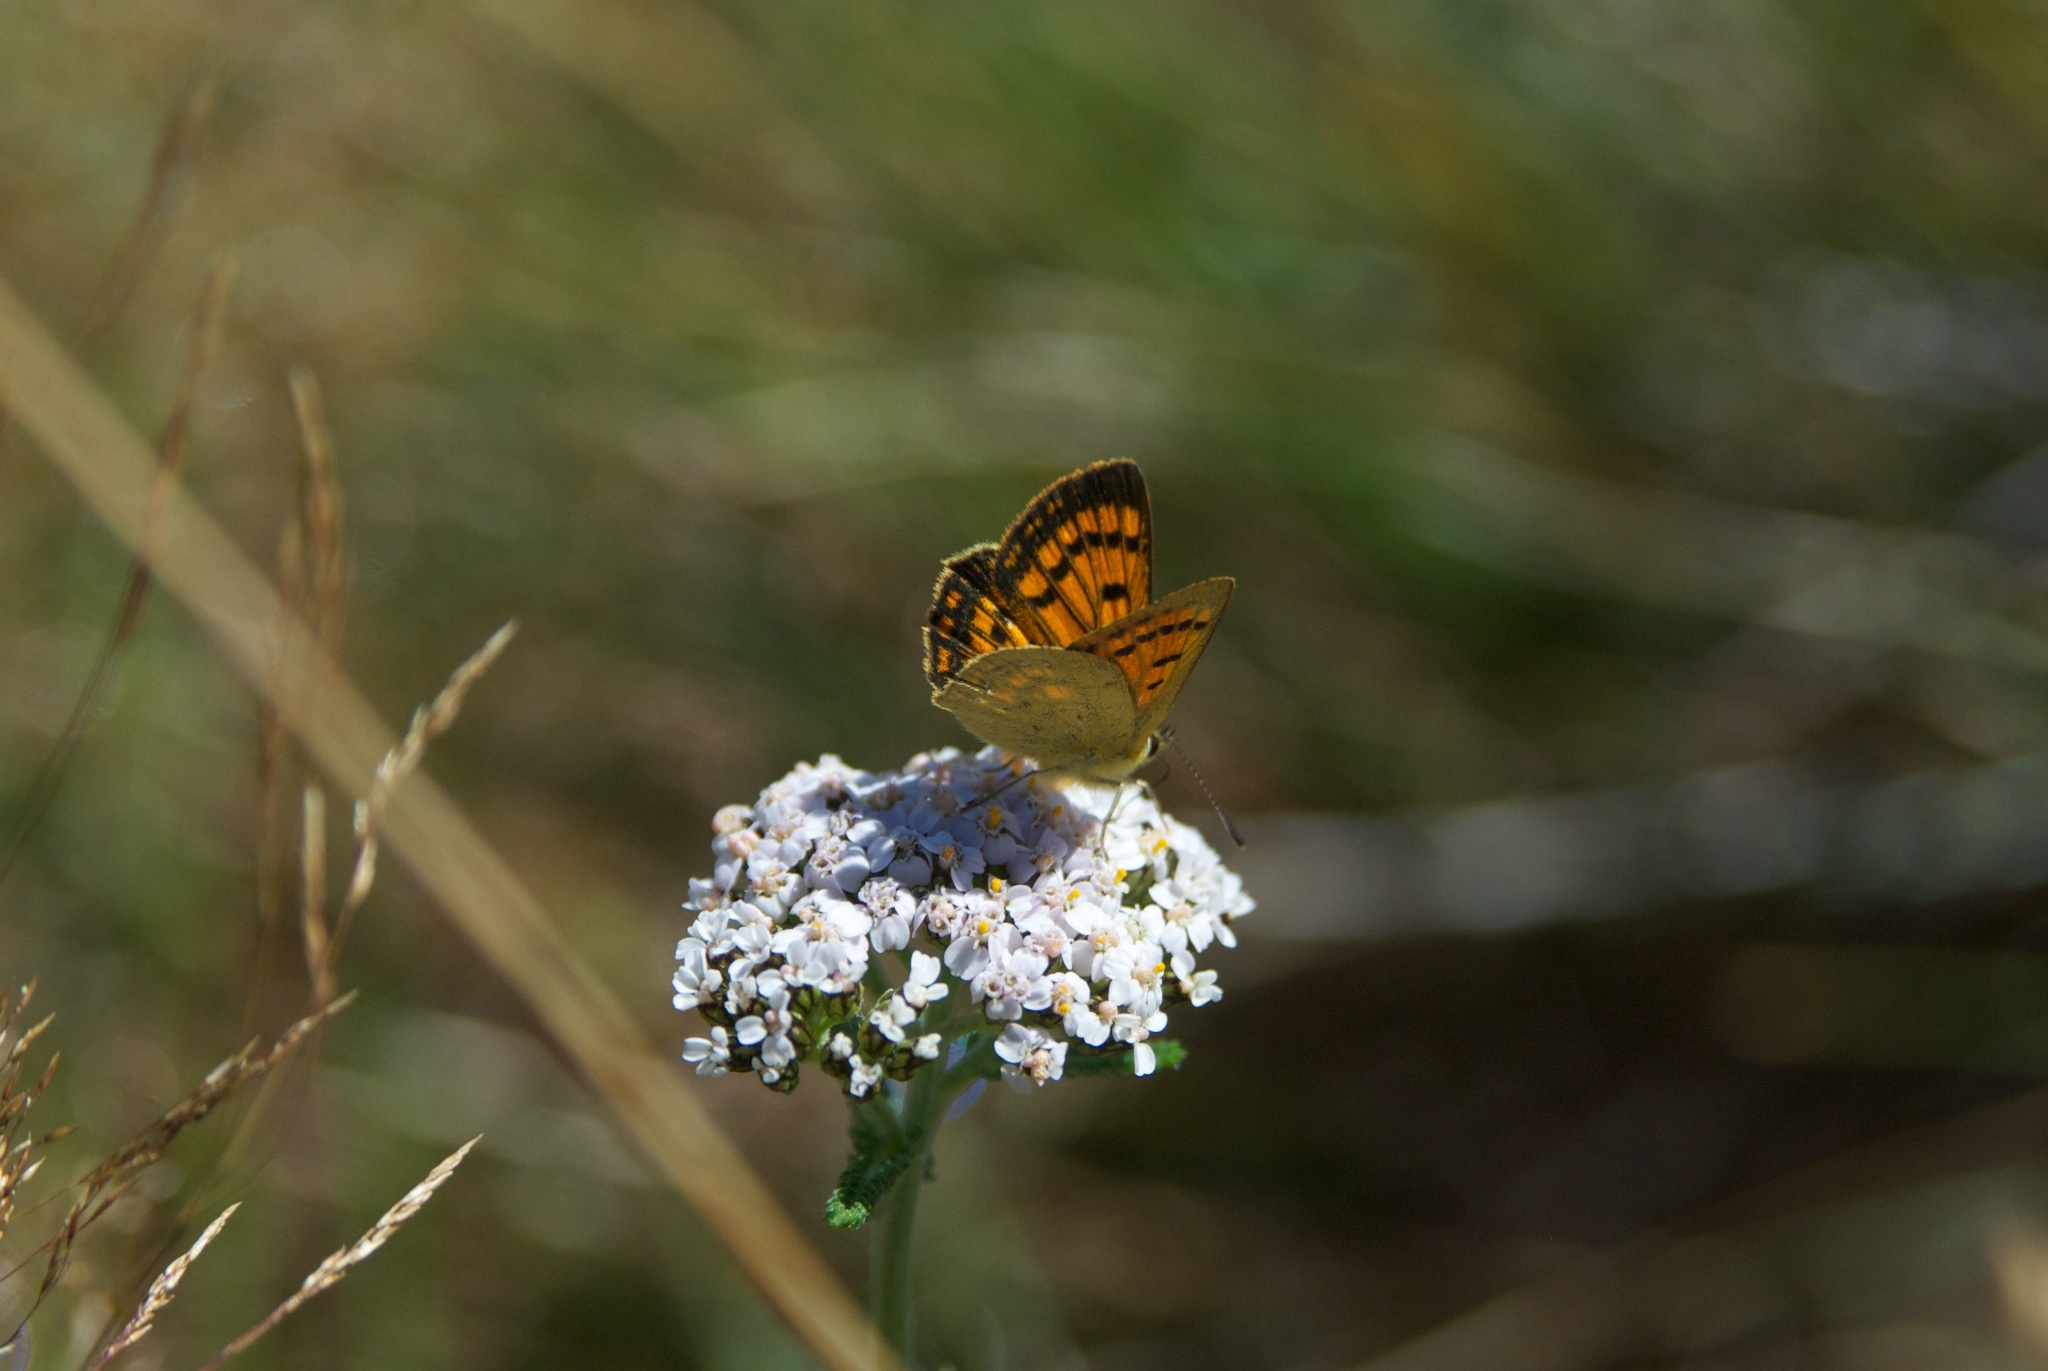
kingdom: Animalia
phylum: Arthropoda
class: Insecta
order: Lepidoptera
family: Lycaenidae
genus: Lycaena
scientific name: Lycaena salustius
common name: North island coastal copper
